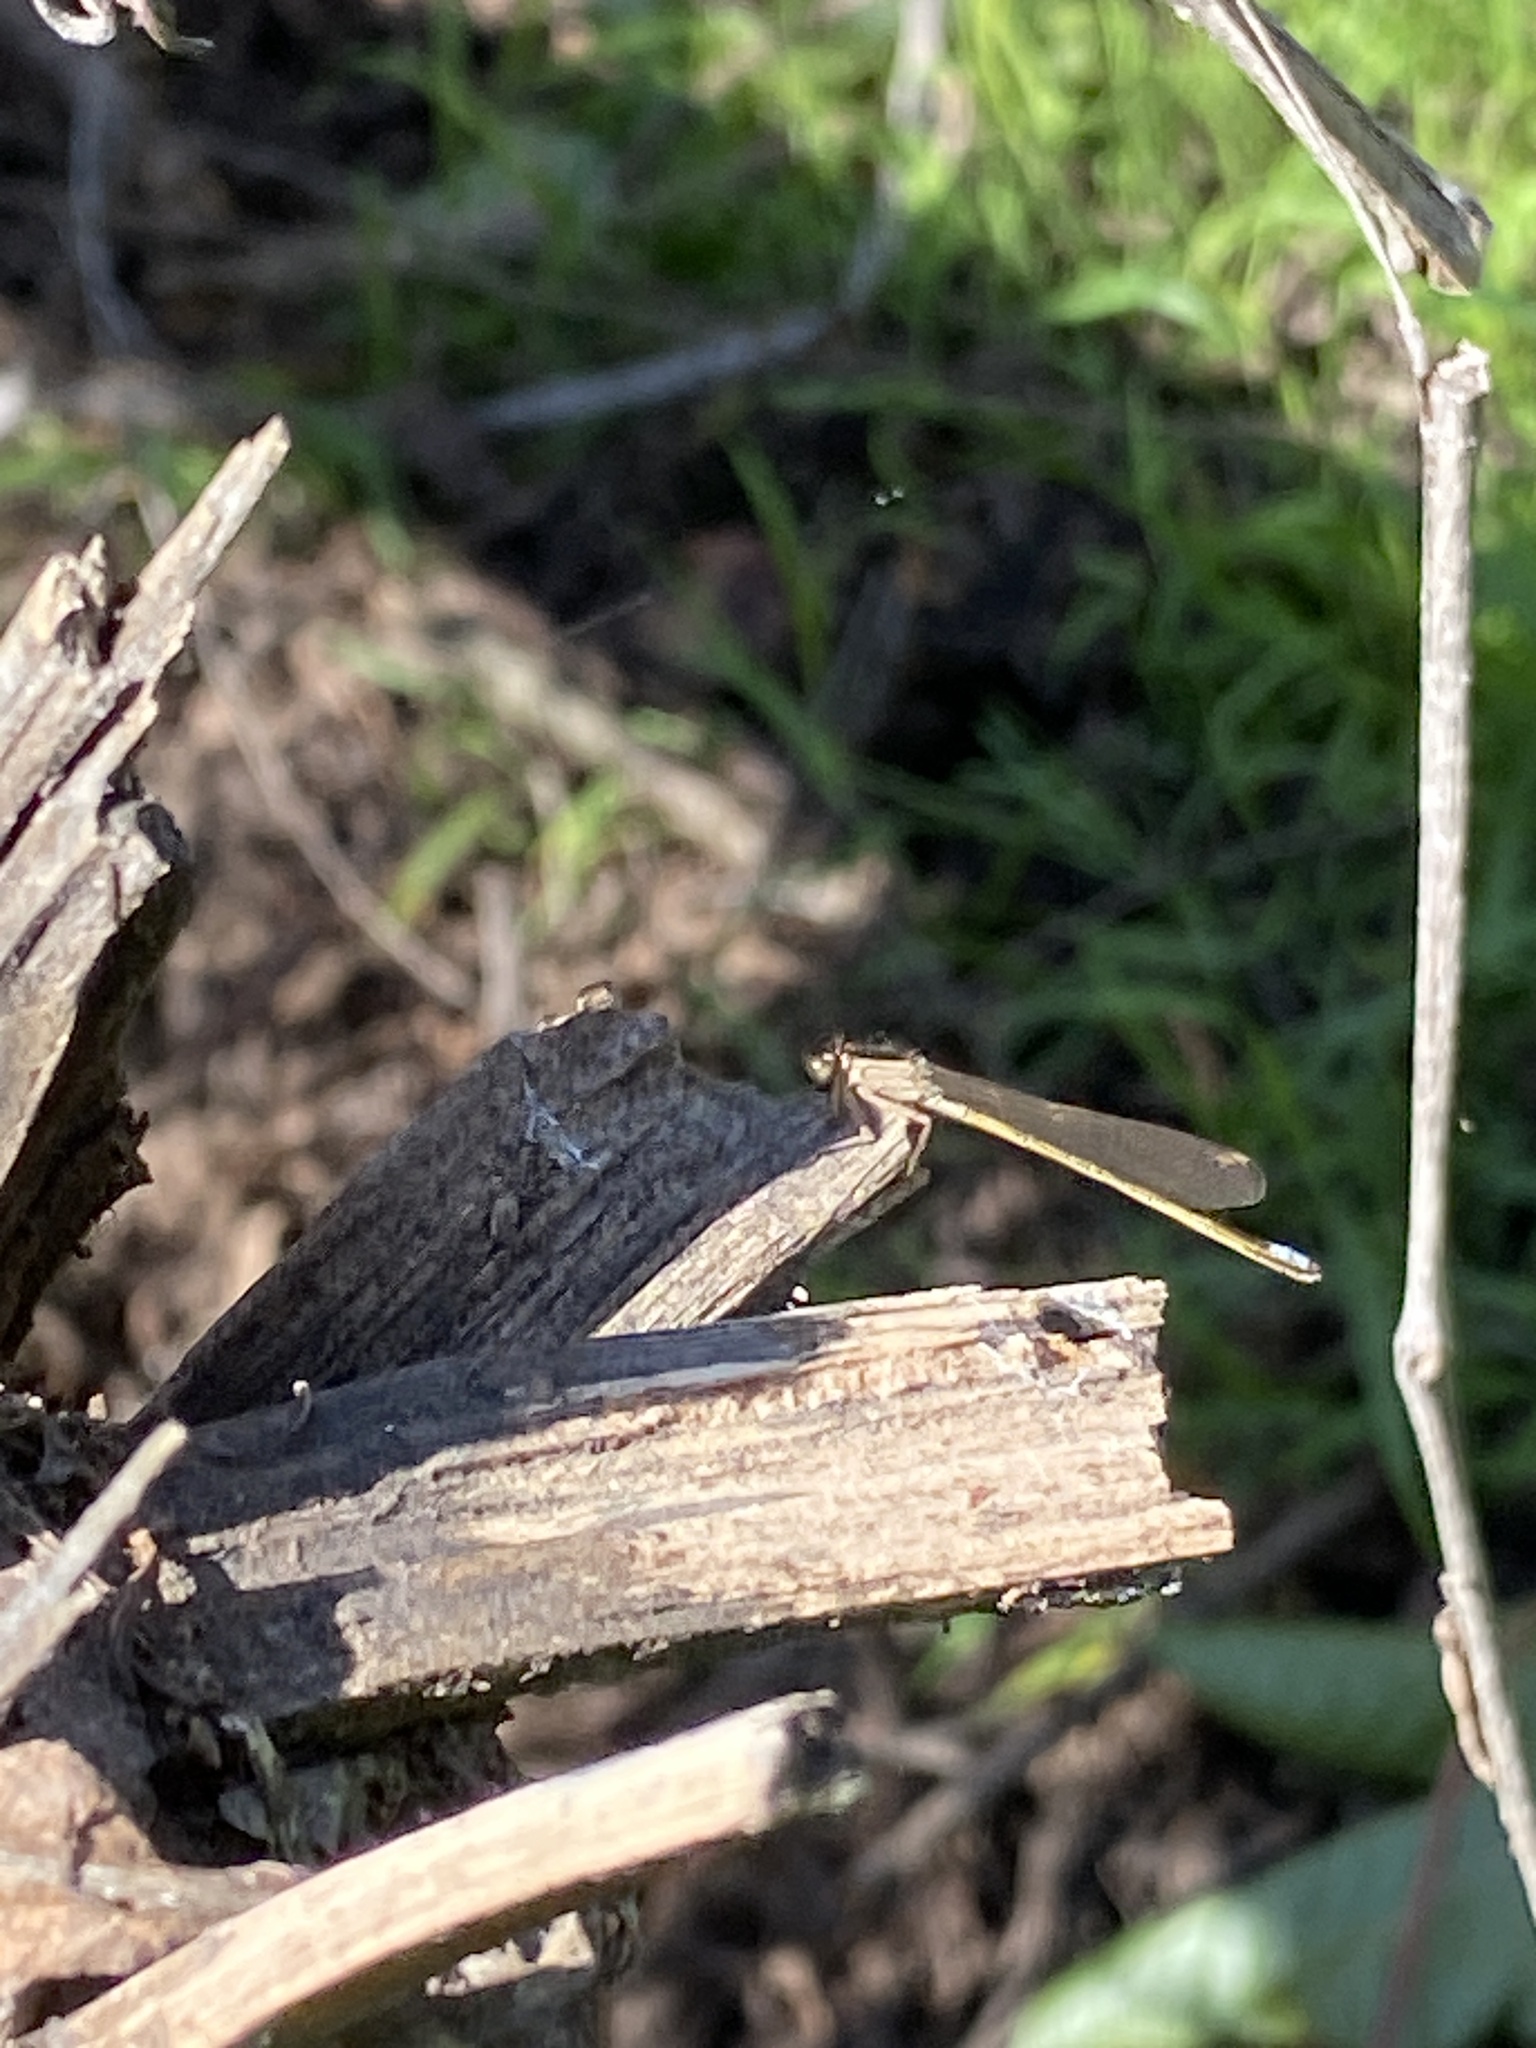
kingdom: Animalia
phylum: Arthropoda
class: Insecta
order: Odonata
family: Coenagrionidae
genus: Ischnura
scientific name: Ischnura denticollis
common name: Black-fronted forktail
